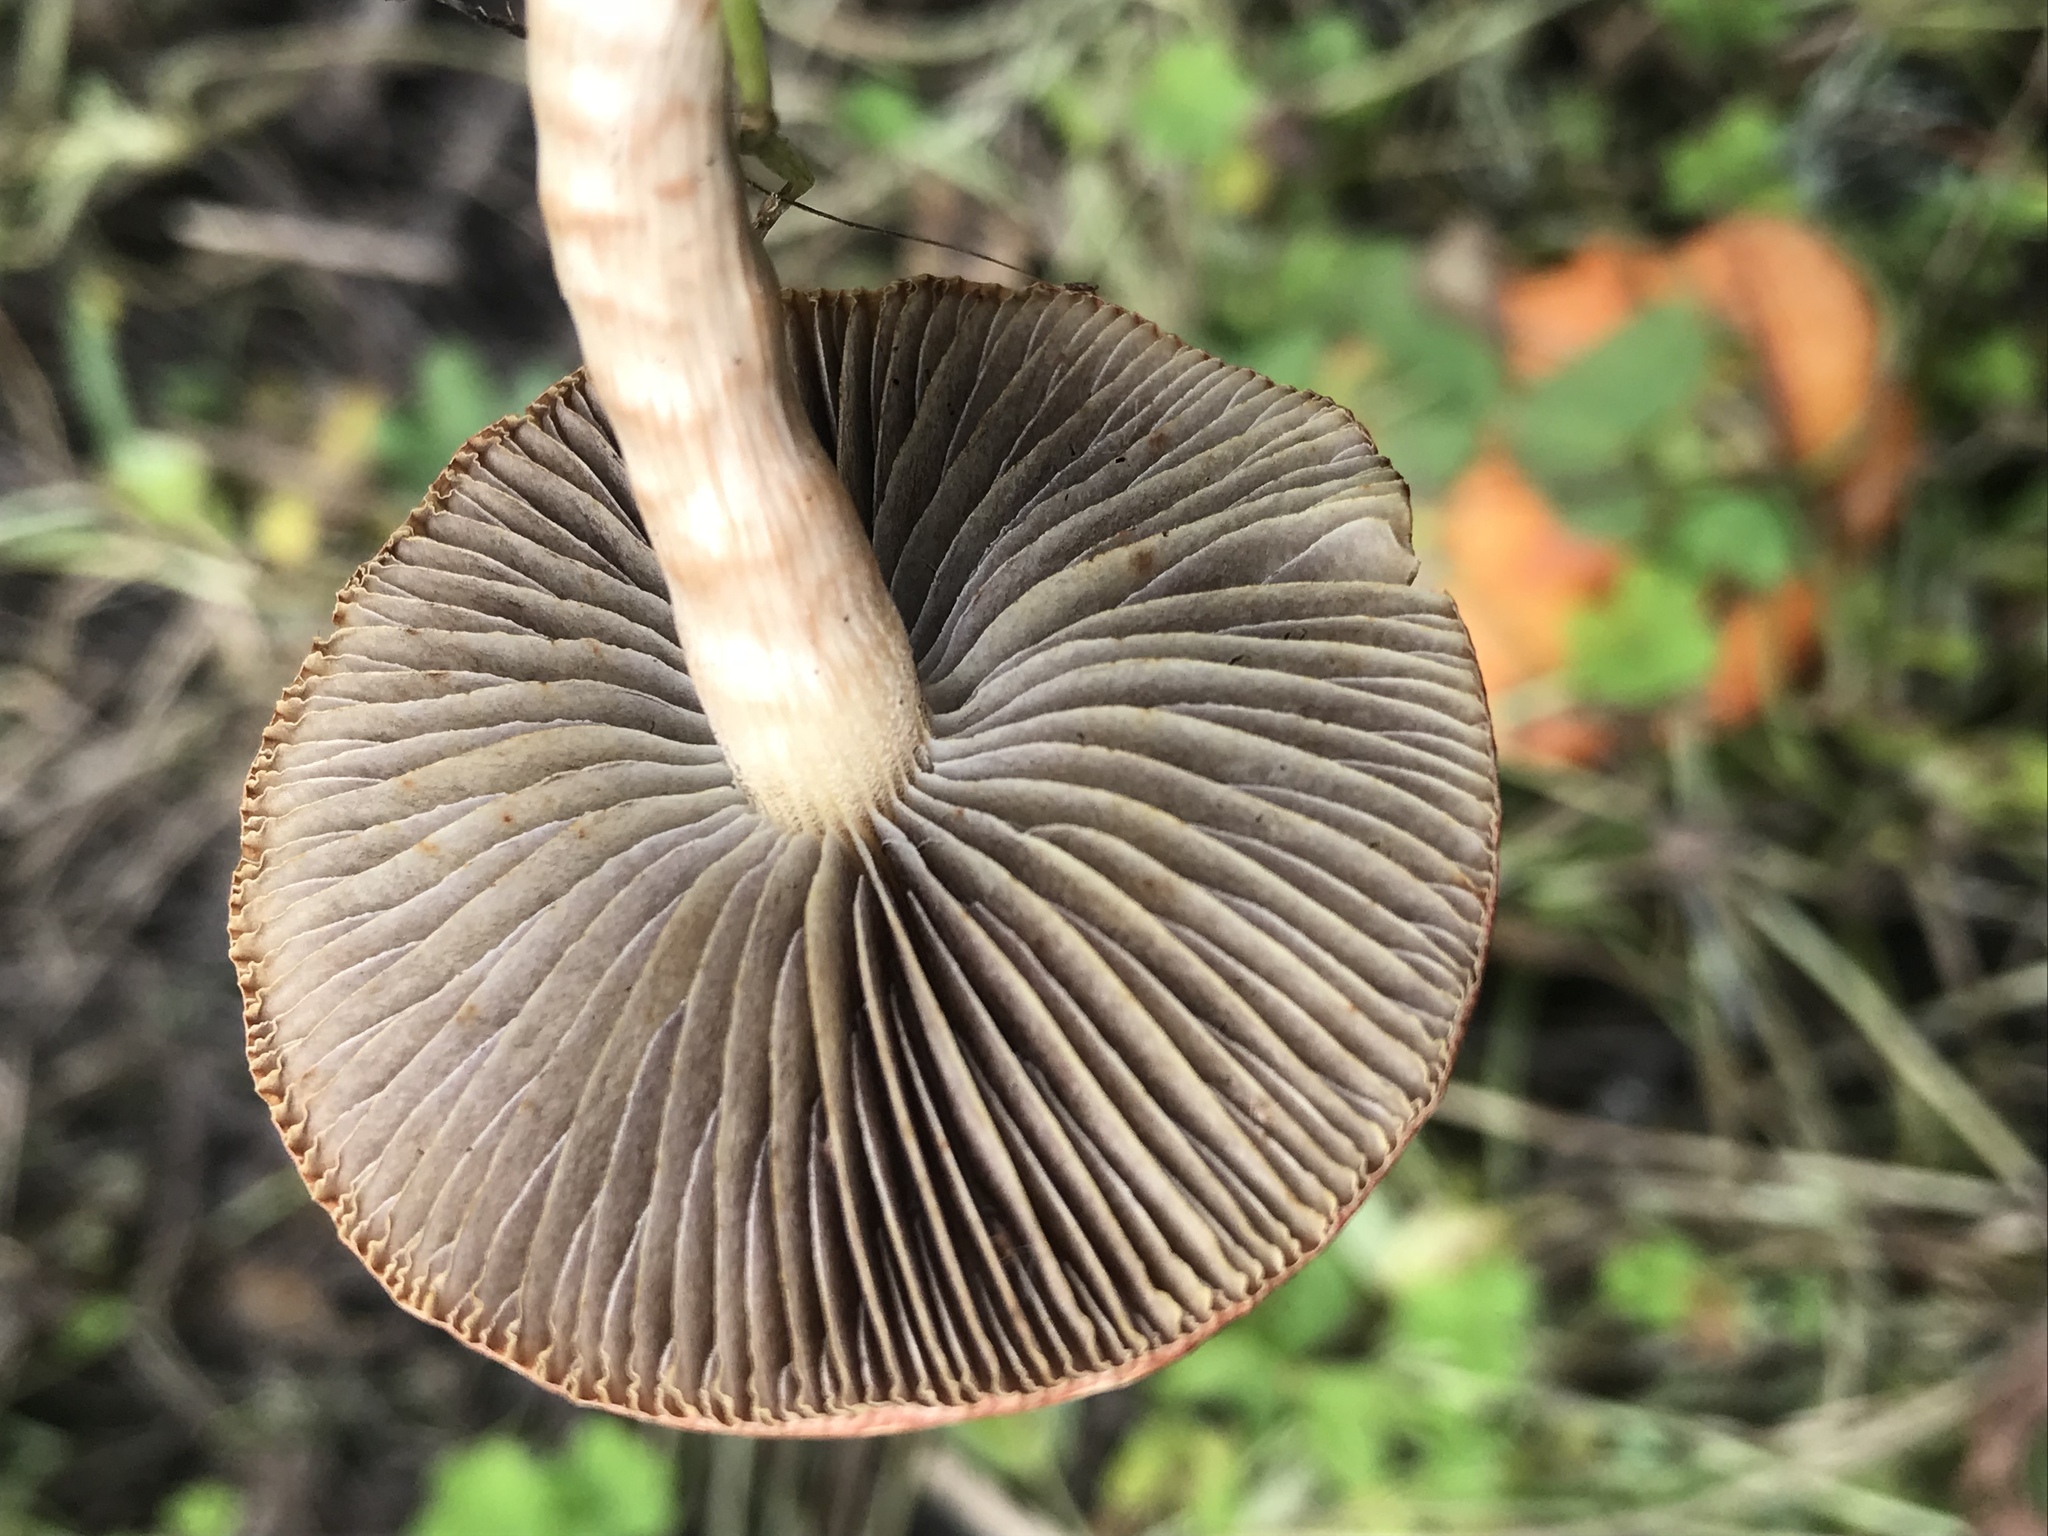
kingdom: Fungi
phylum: Basidiomycota
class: Agaricomycetes
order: Agaricales
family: Strophariaceae
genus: Leratiomyces
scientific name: Leratiomyces ceres
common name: Redlead roundhead
